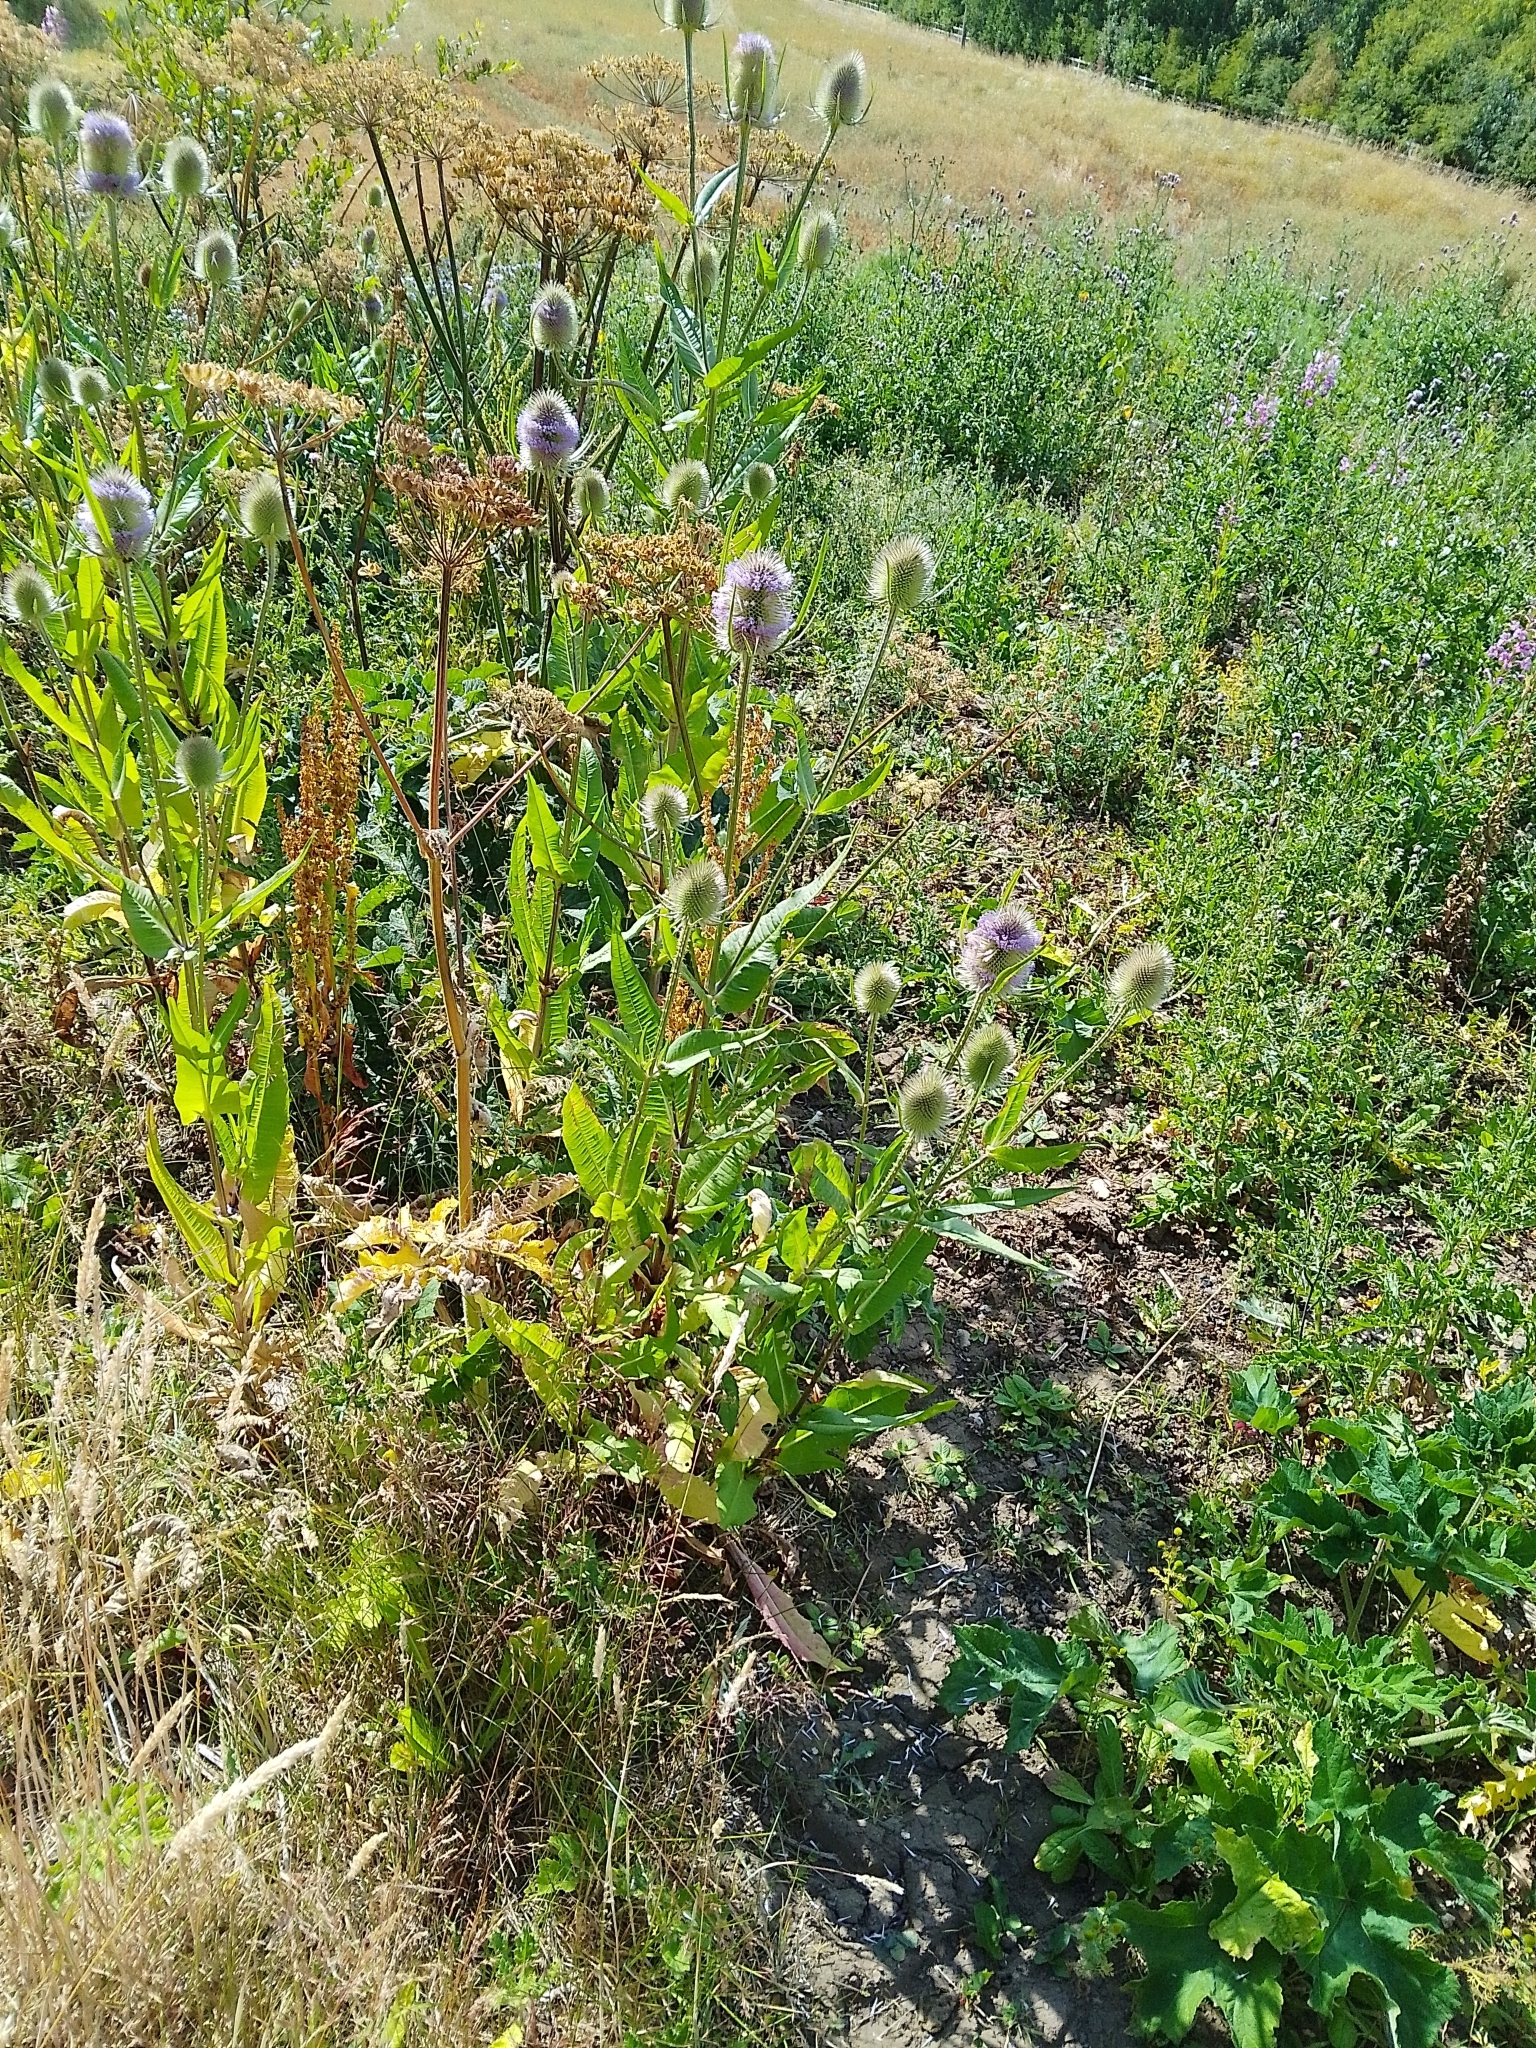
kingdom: Plantae
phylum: Tracheophyta
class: Magnoliopsida
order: Dipsacales
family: Caprifoliaceae
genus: Dipsacus
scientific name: Dipsacus fullonum
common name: Teasel
